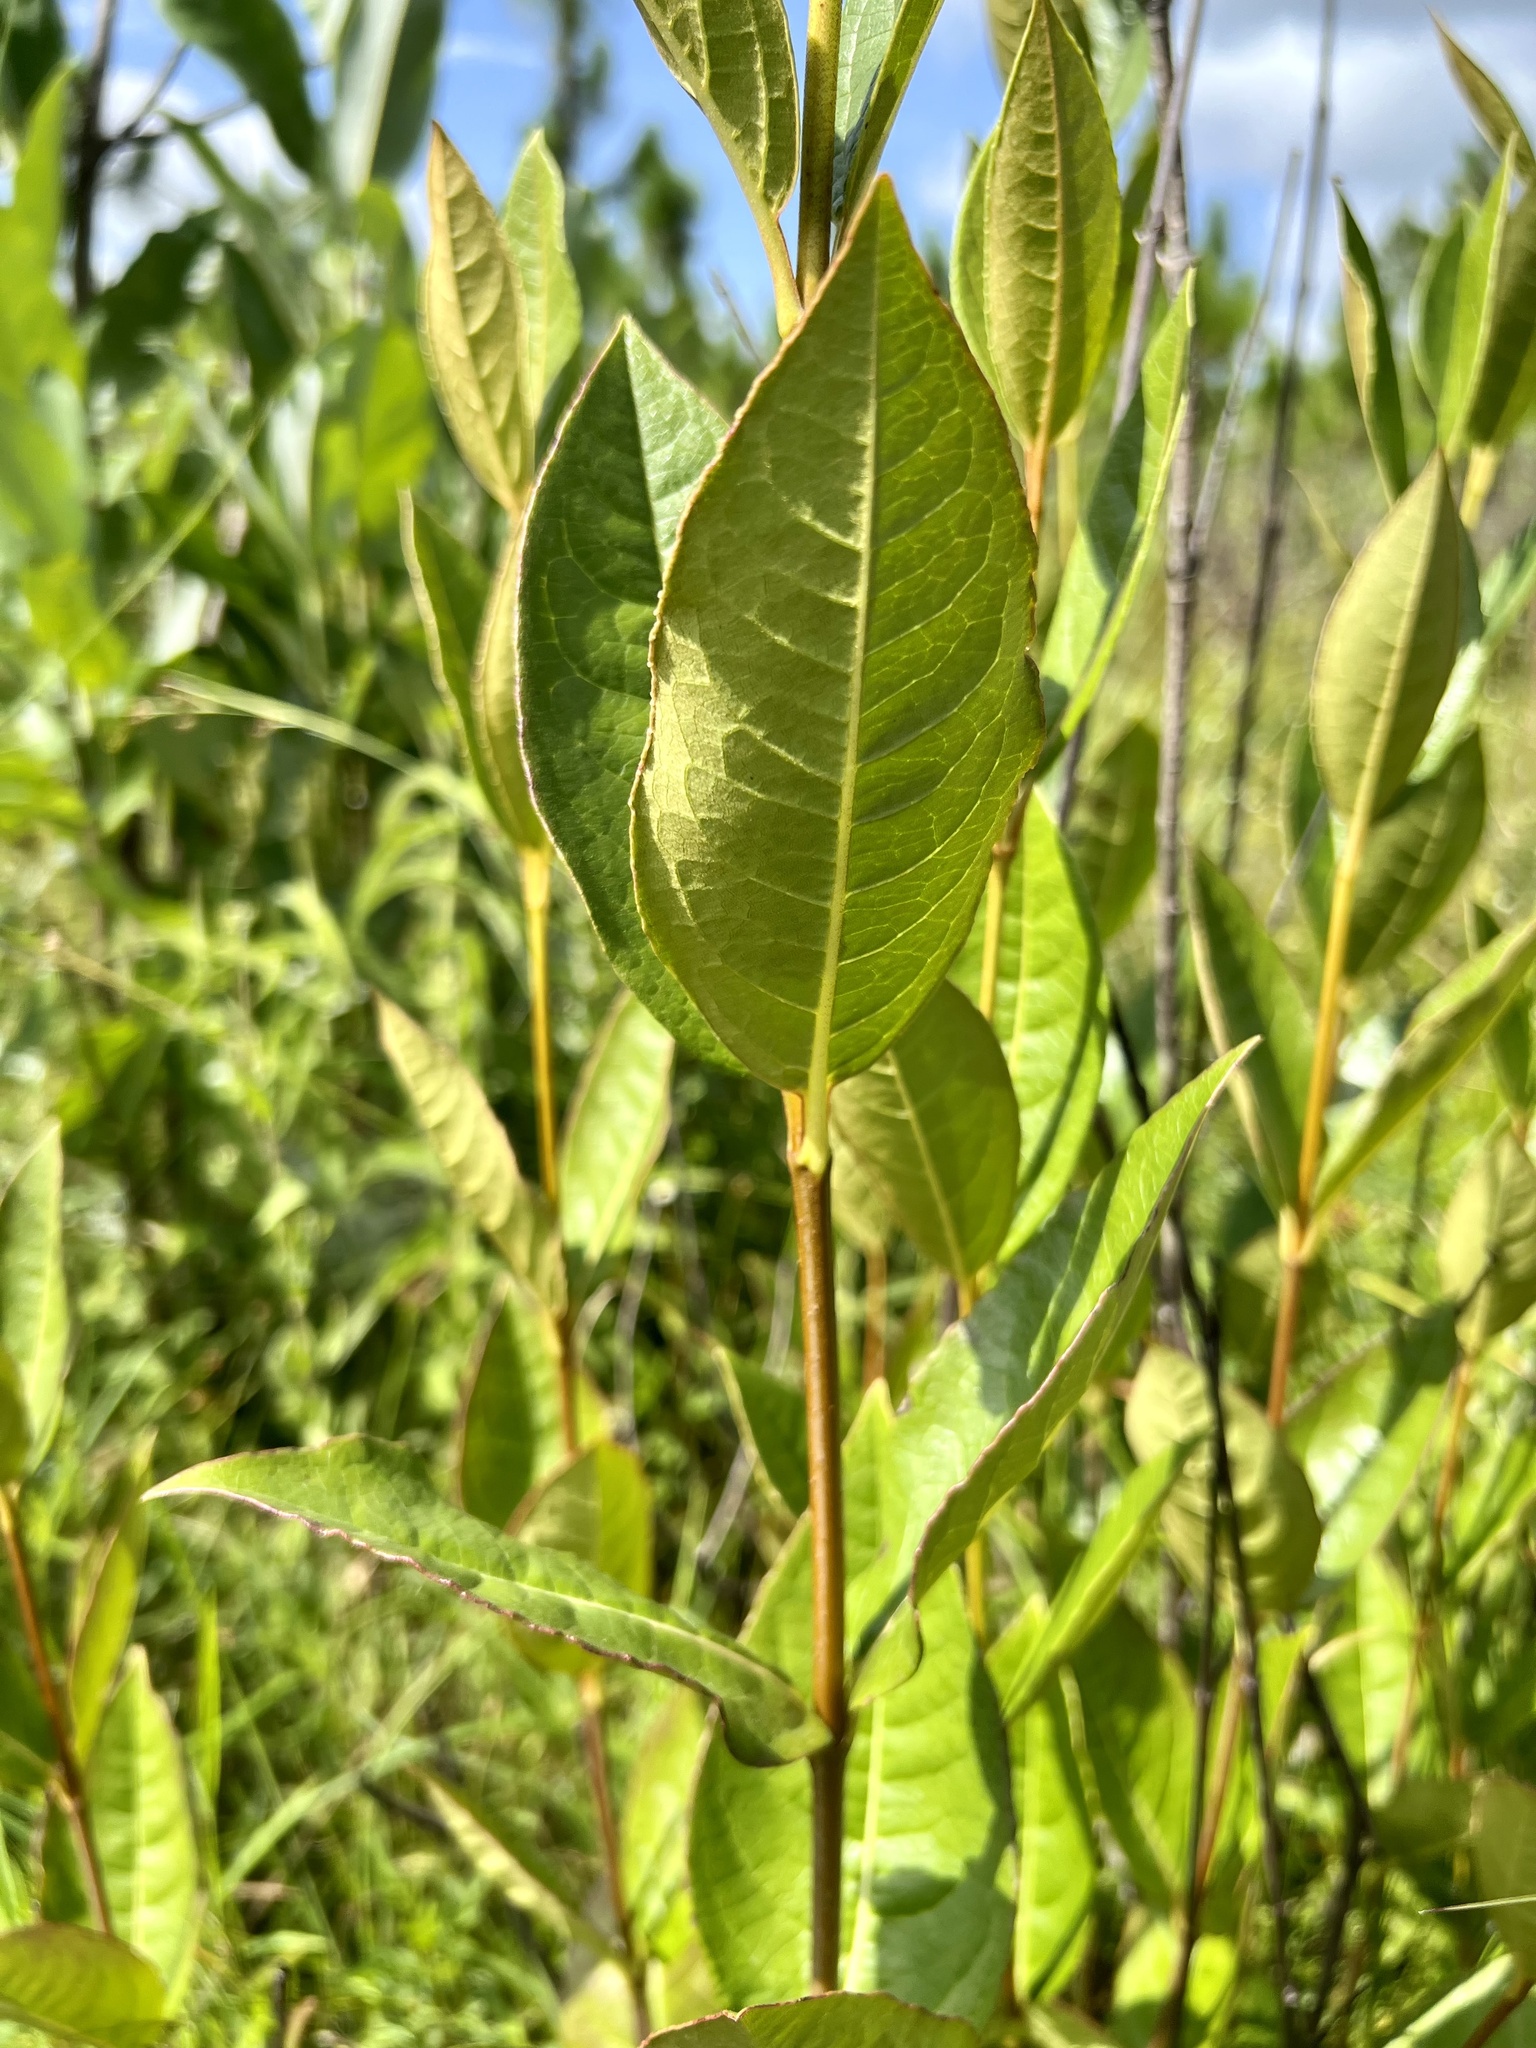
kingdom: Plantae
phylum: Tracheophyta
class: Magnoliopsida
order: Dipsacales
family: Viburnaceae
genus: Viburnum
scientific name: Viburnum nudum
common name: Possum haw
